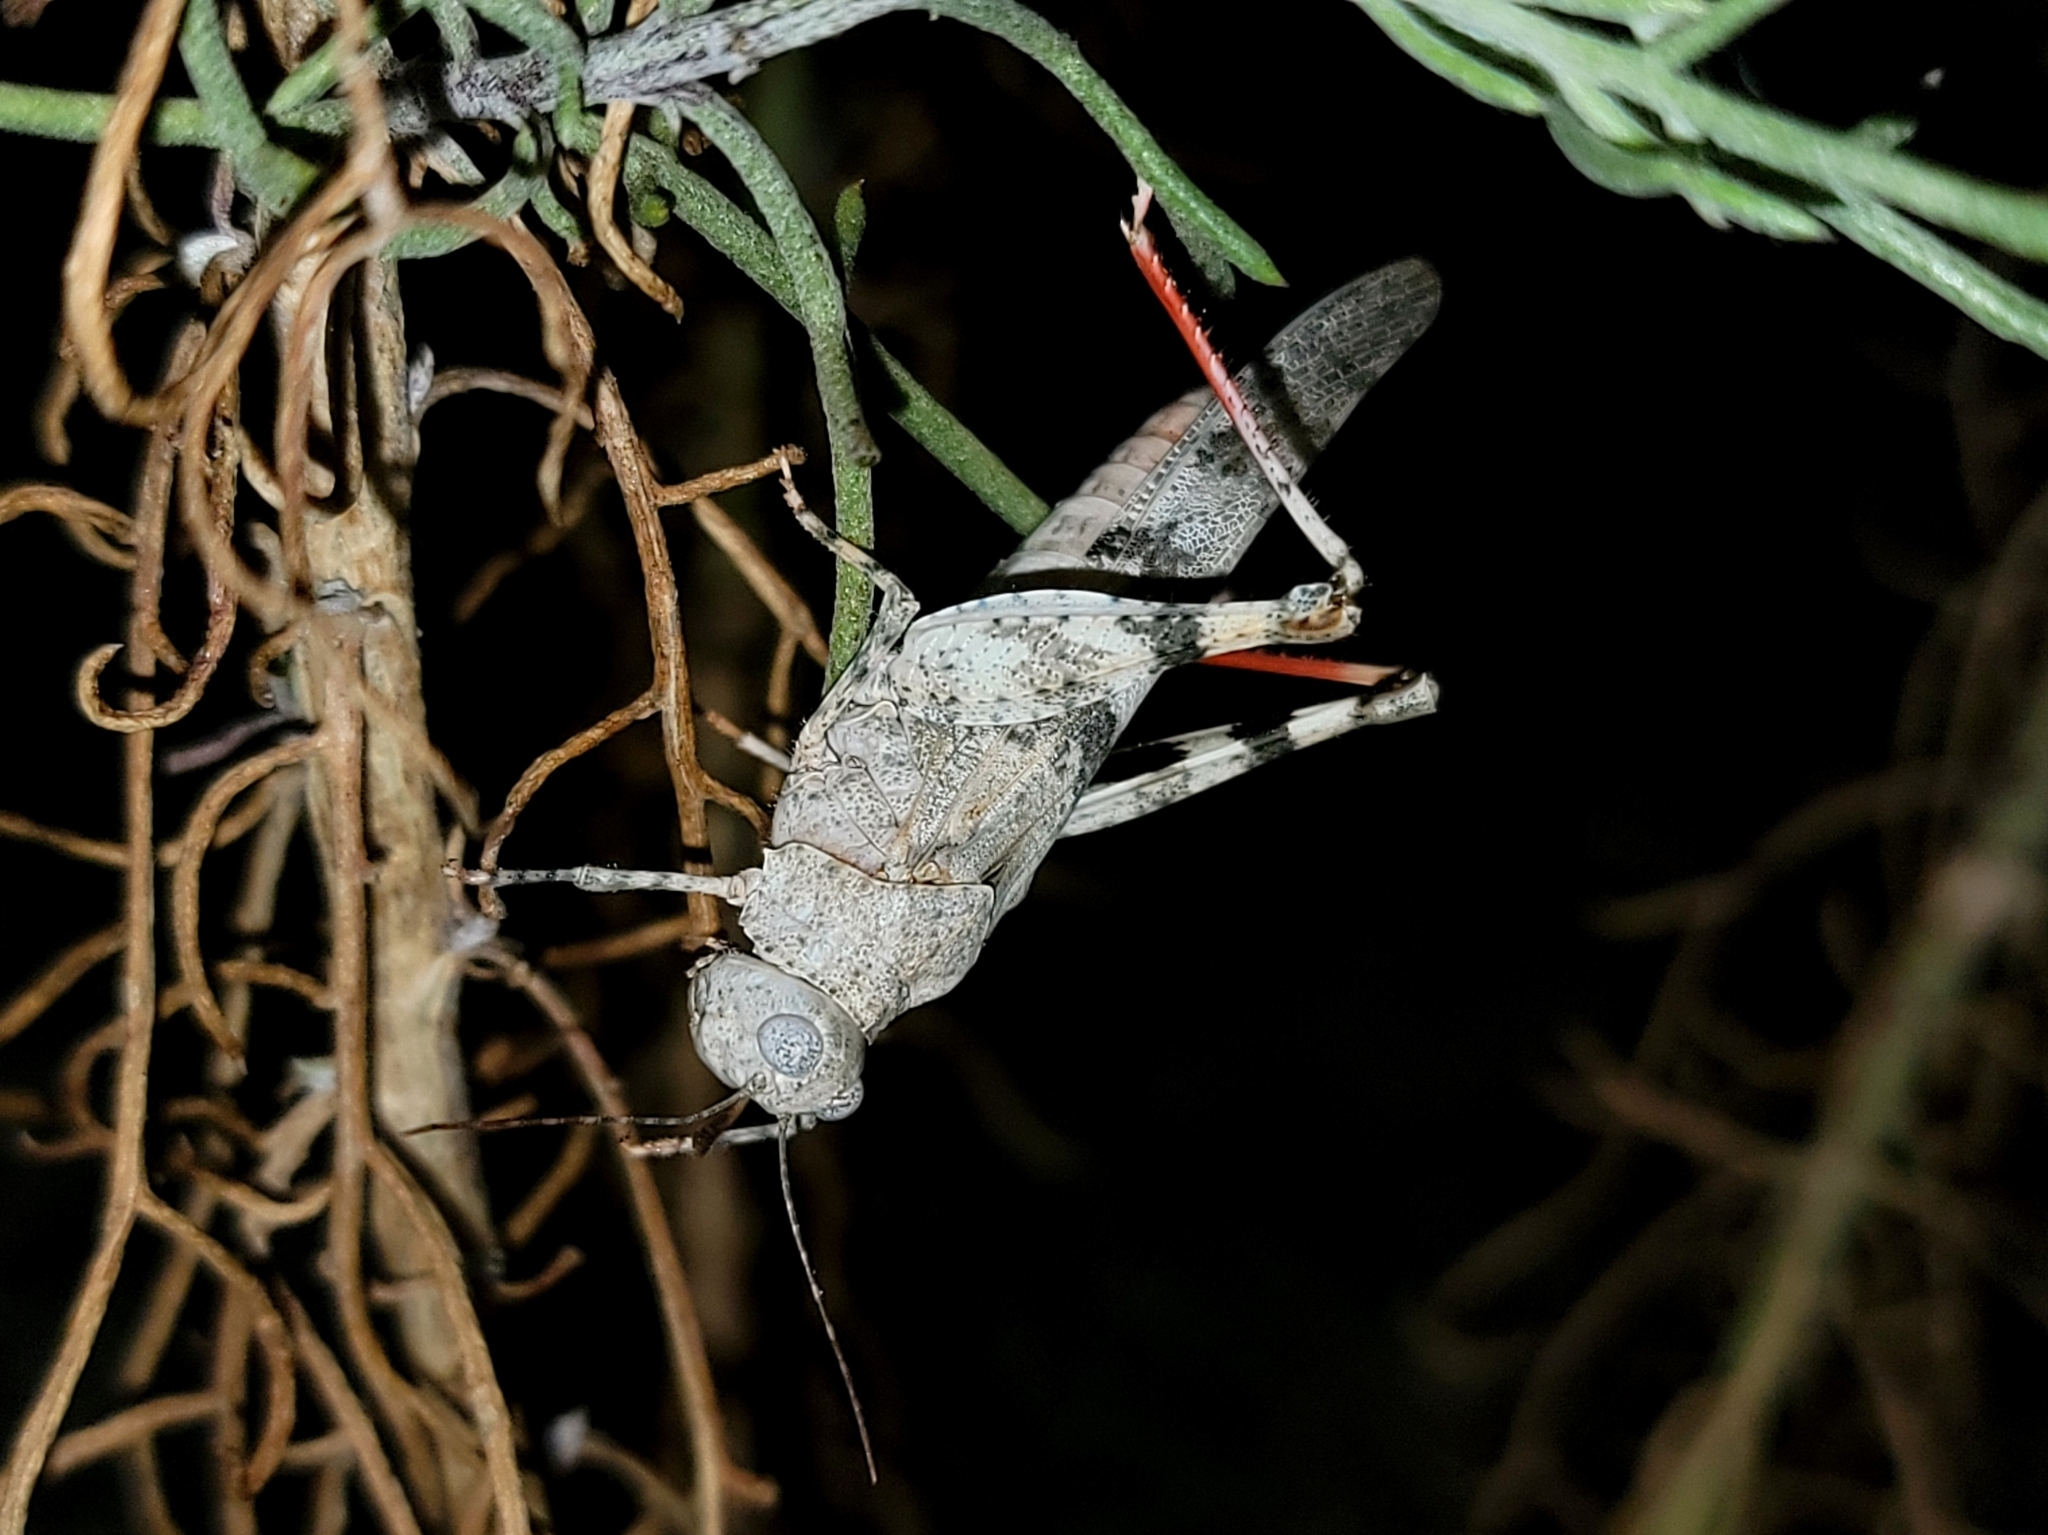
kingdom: Animalia
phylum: Arthropoda
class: Insecta
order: Orthoptera
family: Acrididae
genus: Trimerotropis
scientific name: Trimerotropis californica
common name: California band-winged grasshopper
